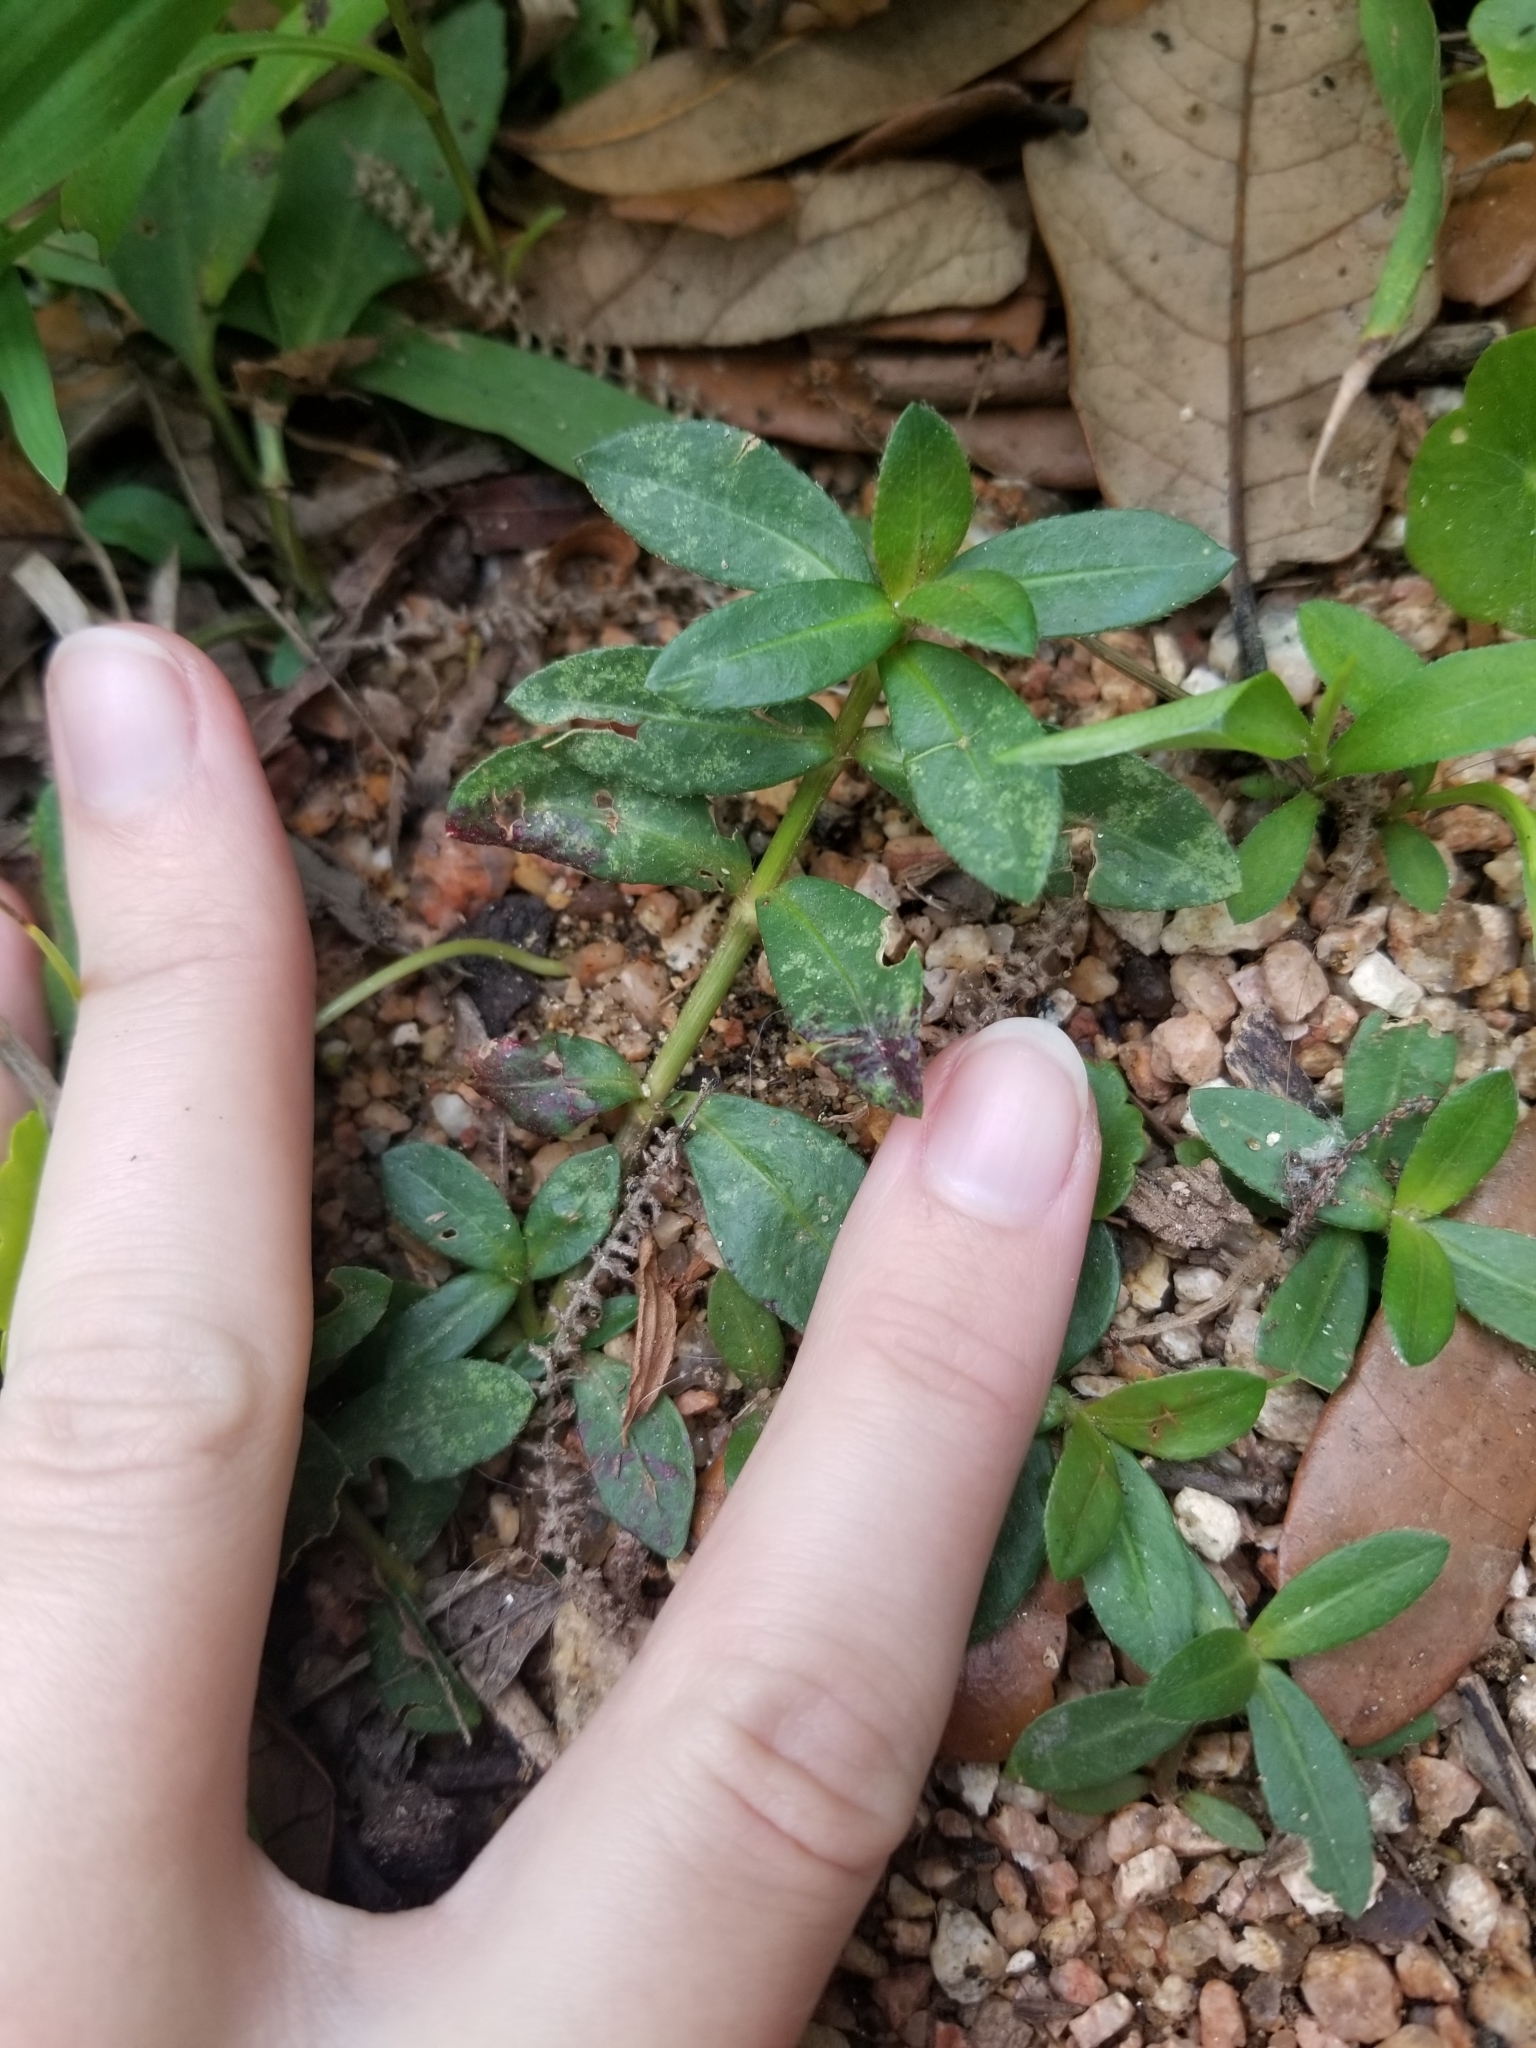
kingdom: Plantae
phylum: Tracheophyta
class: Magnoliopsida
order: Caryophyllales
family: Amaranthaceae
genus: Alternanthera
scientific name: Alternanthera philoxeroides
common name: Alligatorweed
